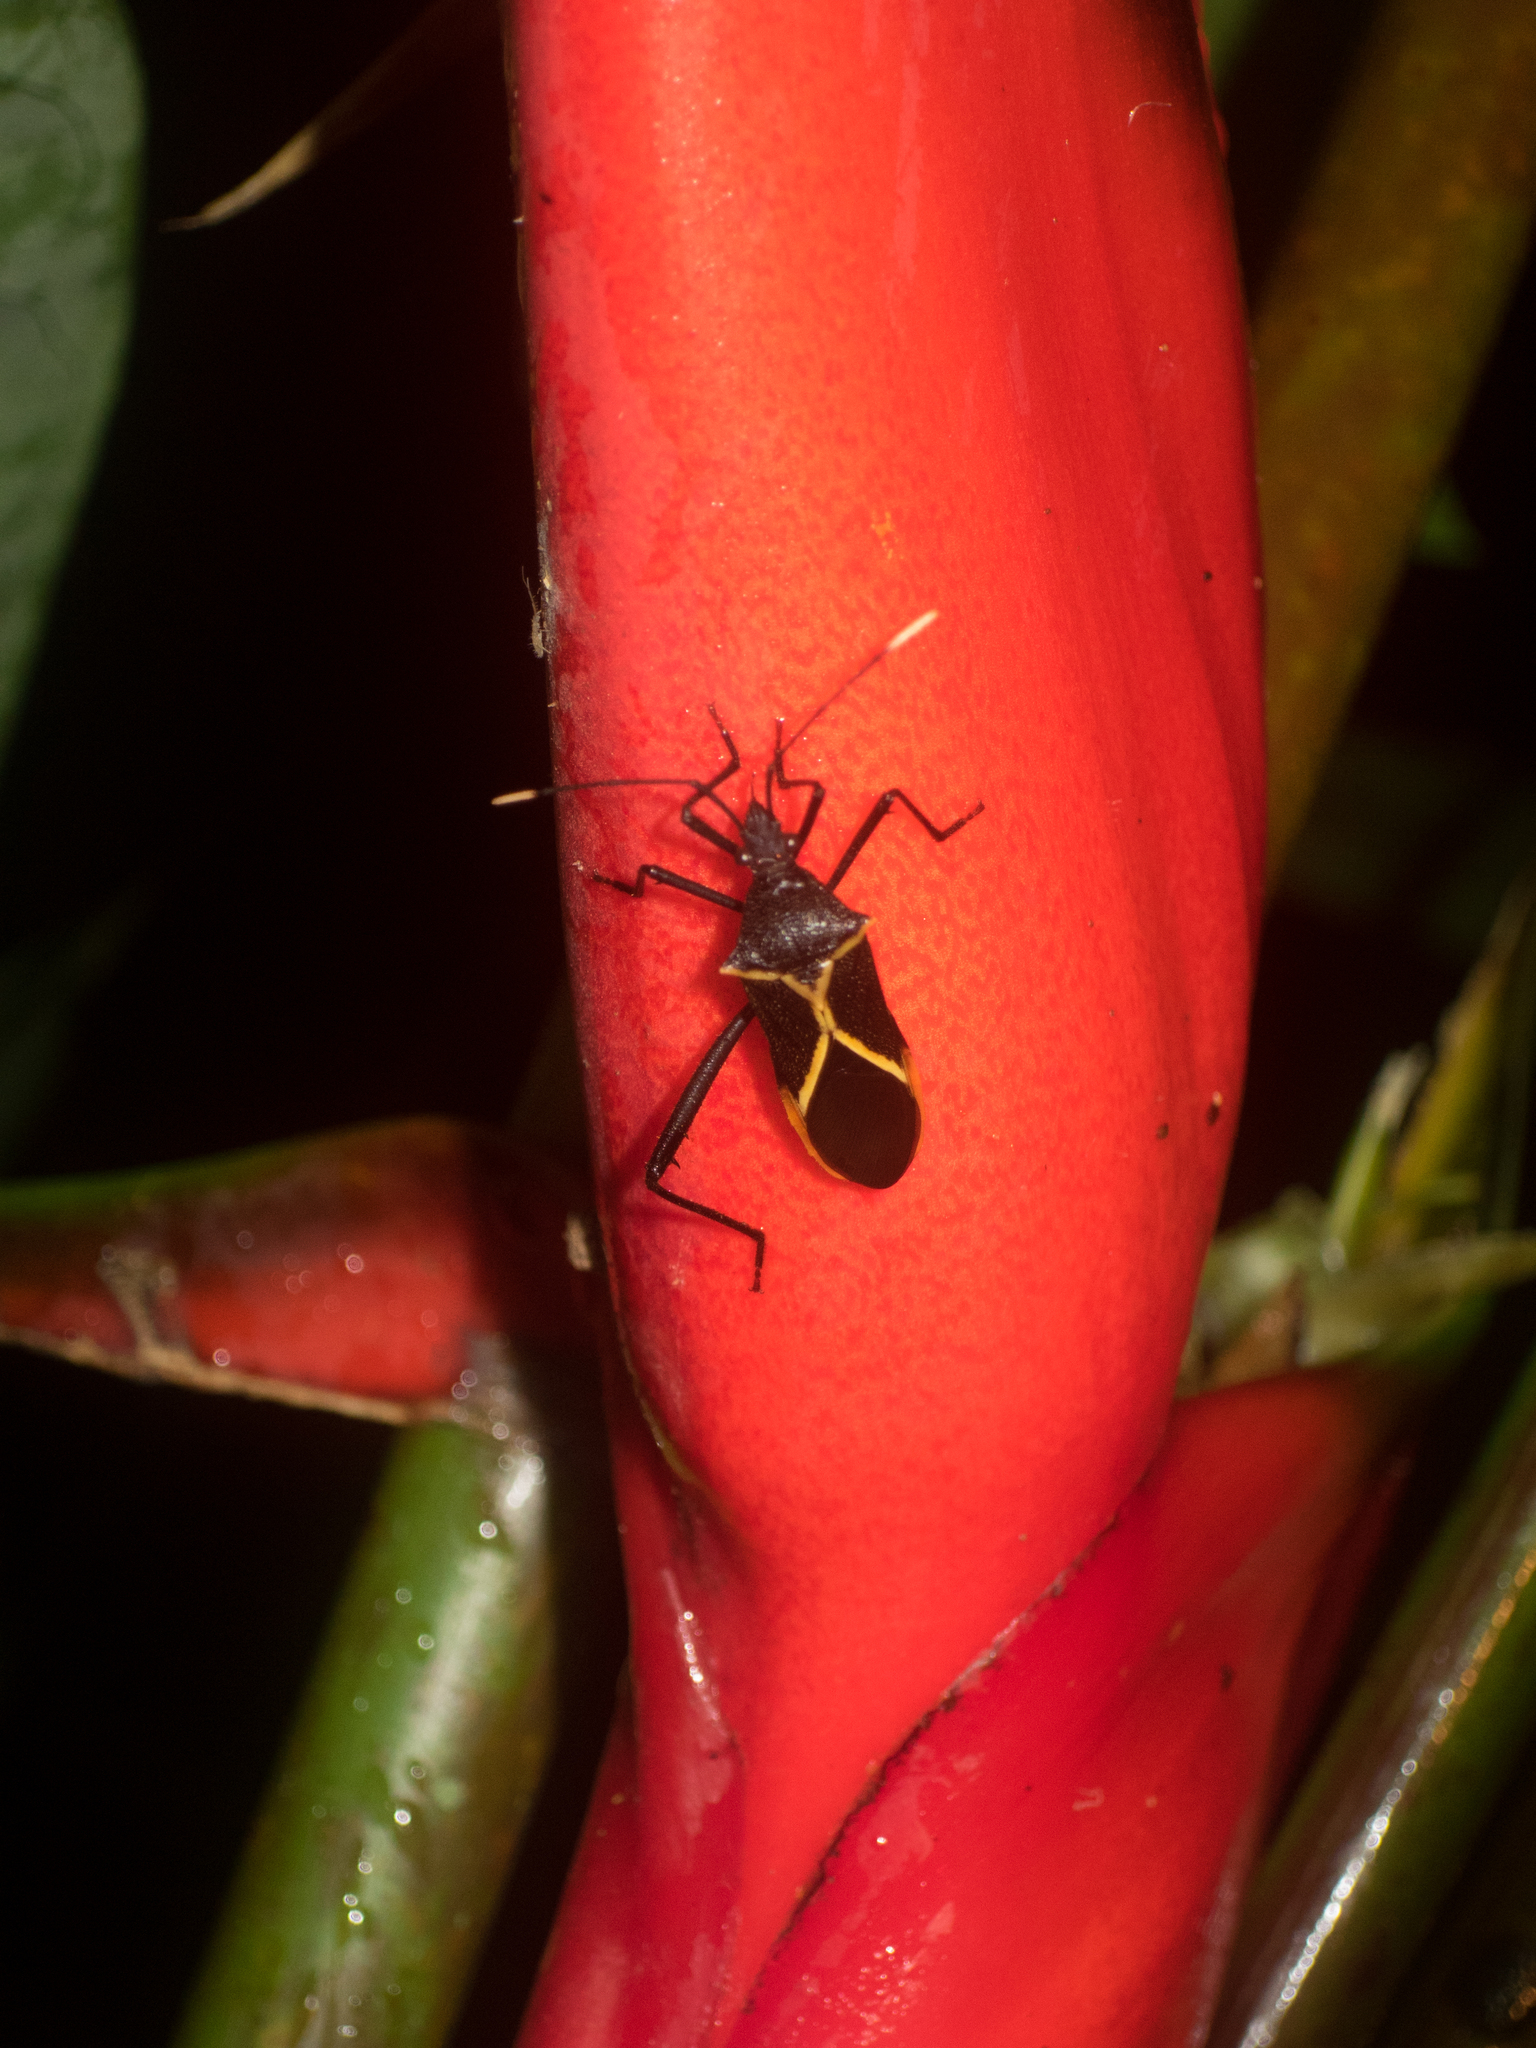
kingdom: Animalia
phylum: Arthropoda
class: Insecta
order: Hemiptera
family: Coreidae
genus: Leptoscelis
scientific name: Leptoscelis conspicuus
